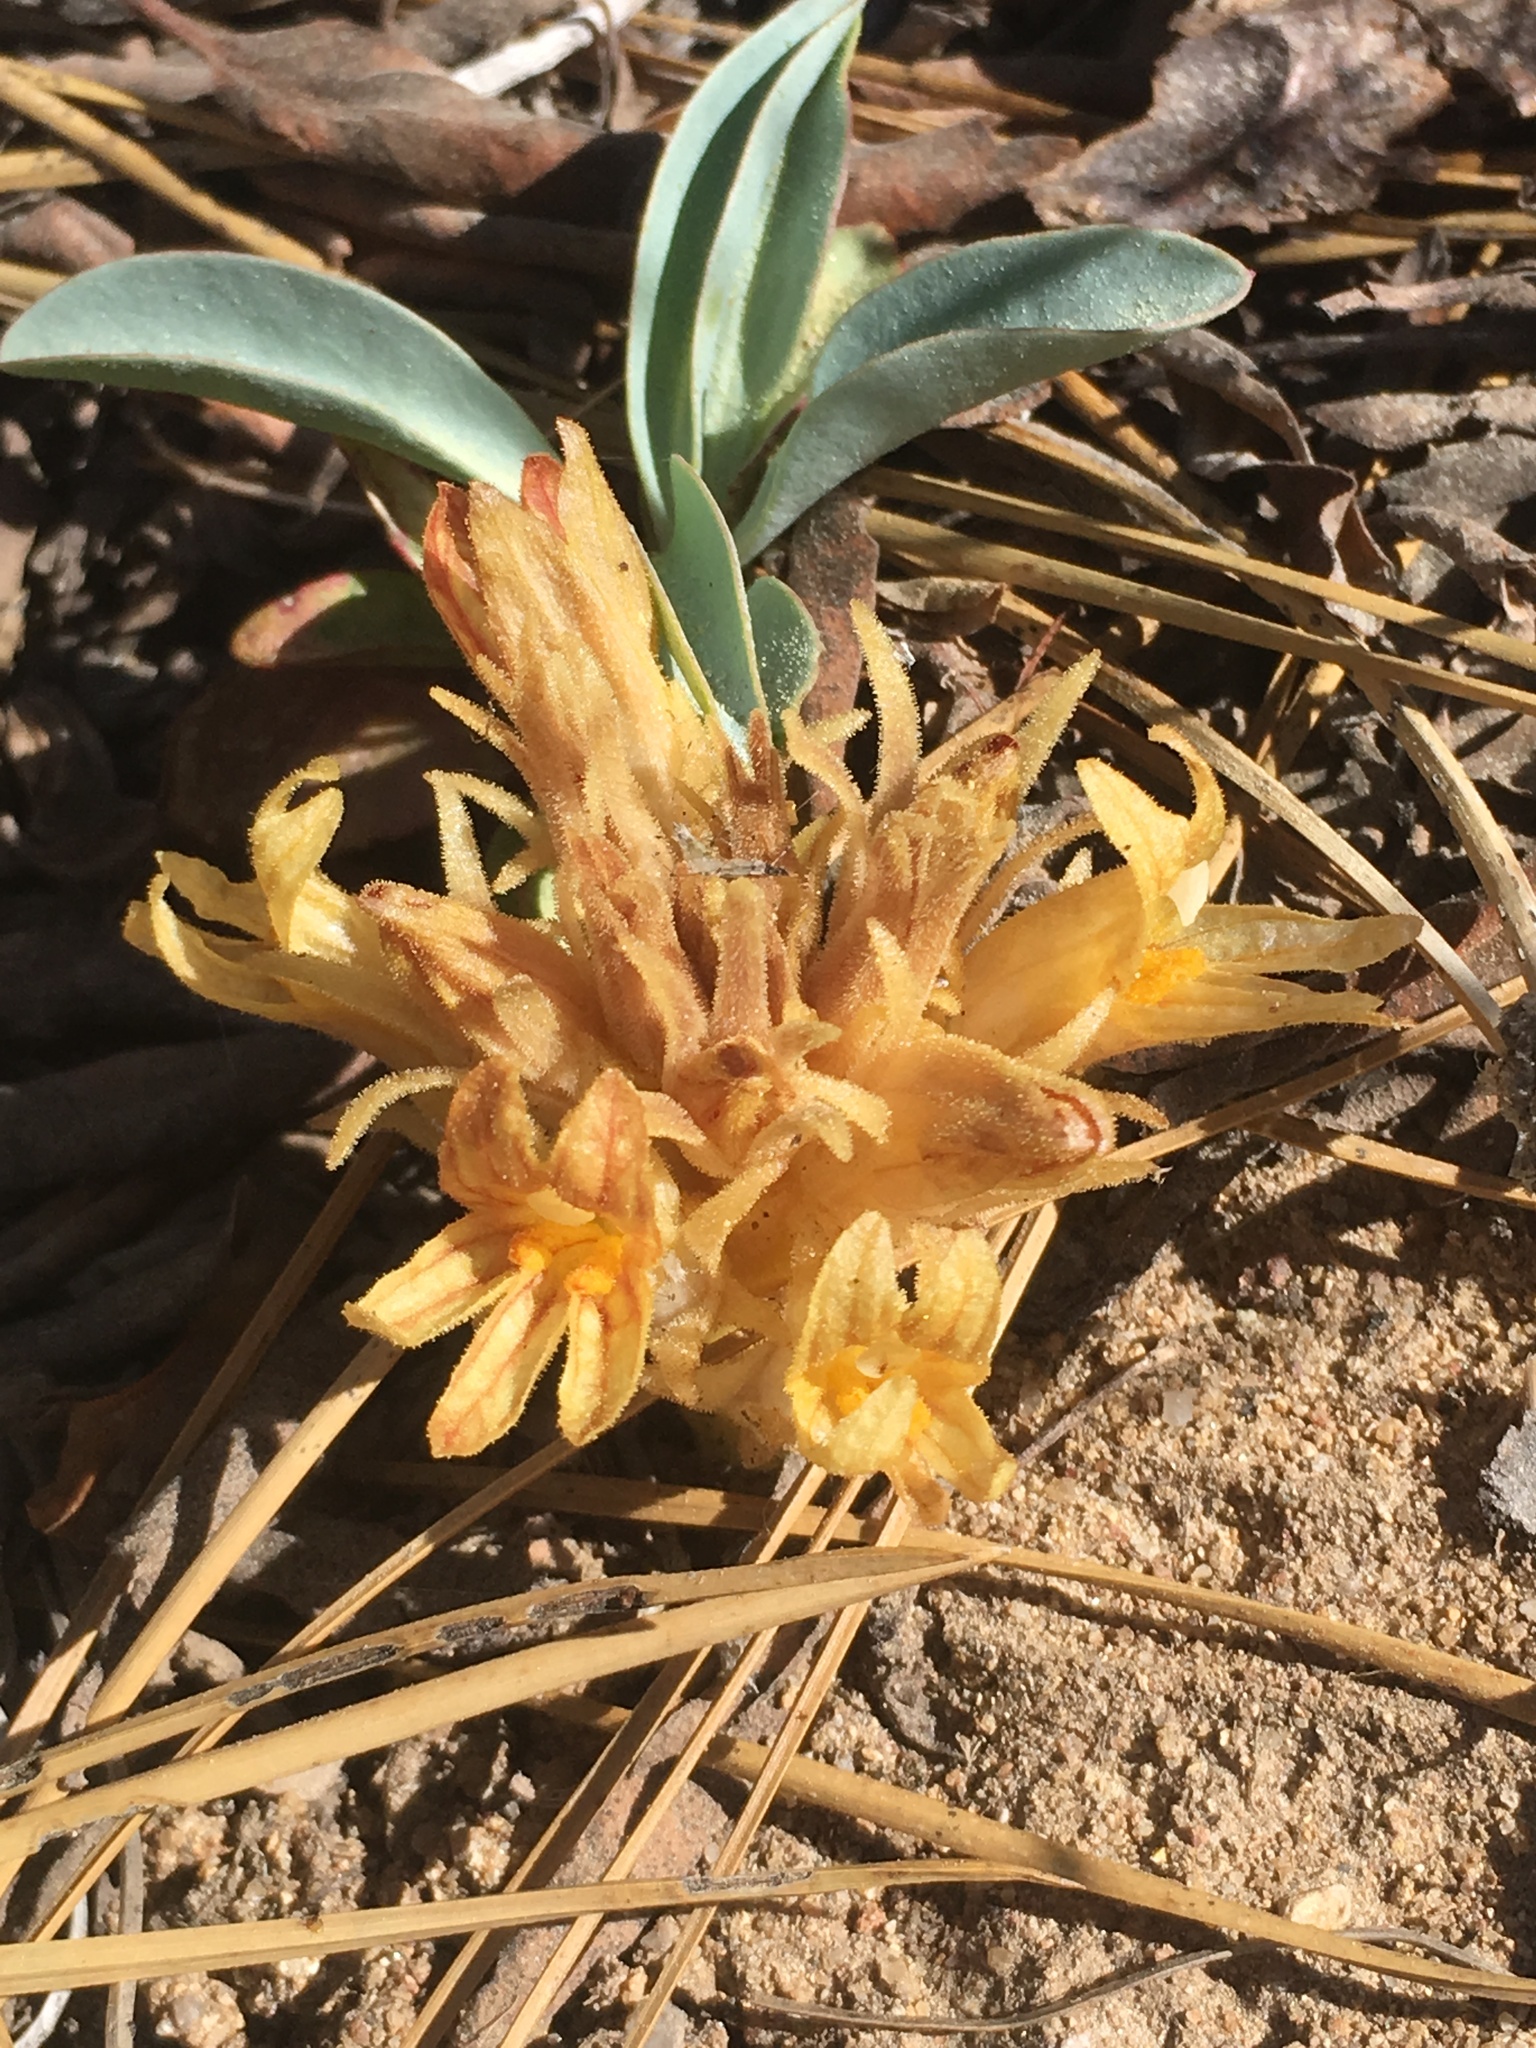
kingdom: Plantae
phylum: Tracheophyta
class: Magnoliopsida
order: Lamiales
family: Orobanchaceae
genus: Aphyllon
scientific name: Aphyllon californicum
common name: California broomrape
